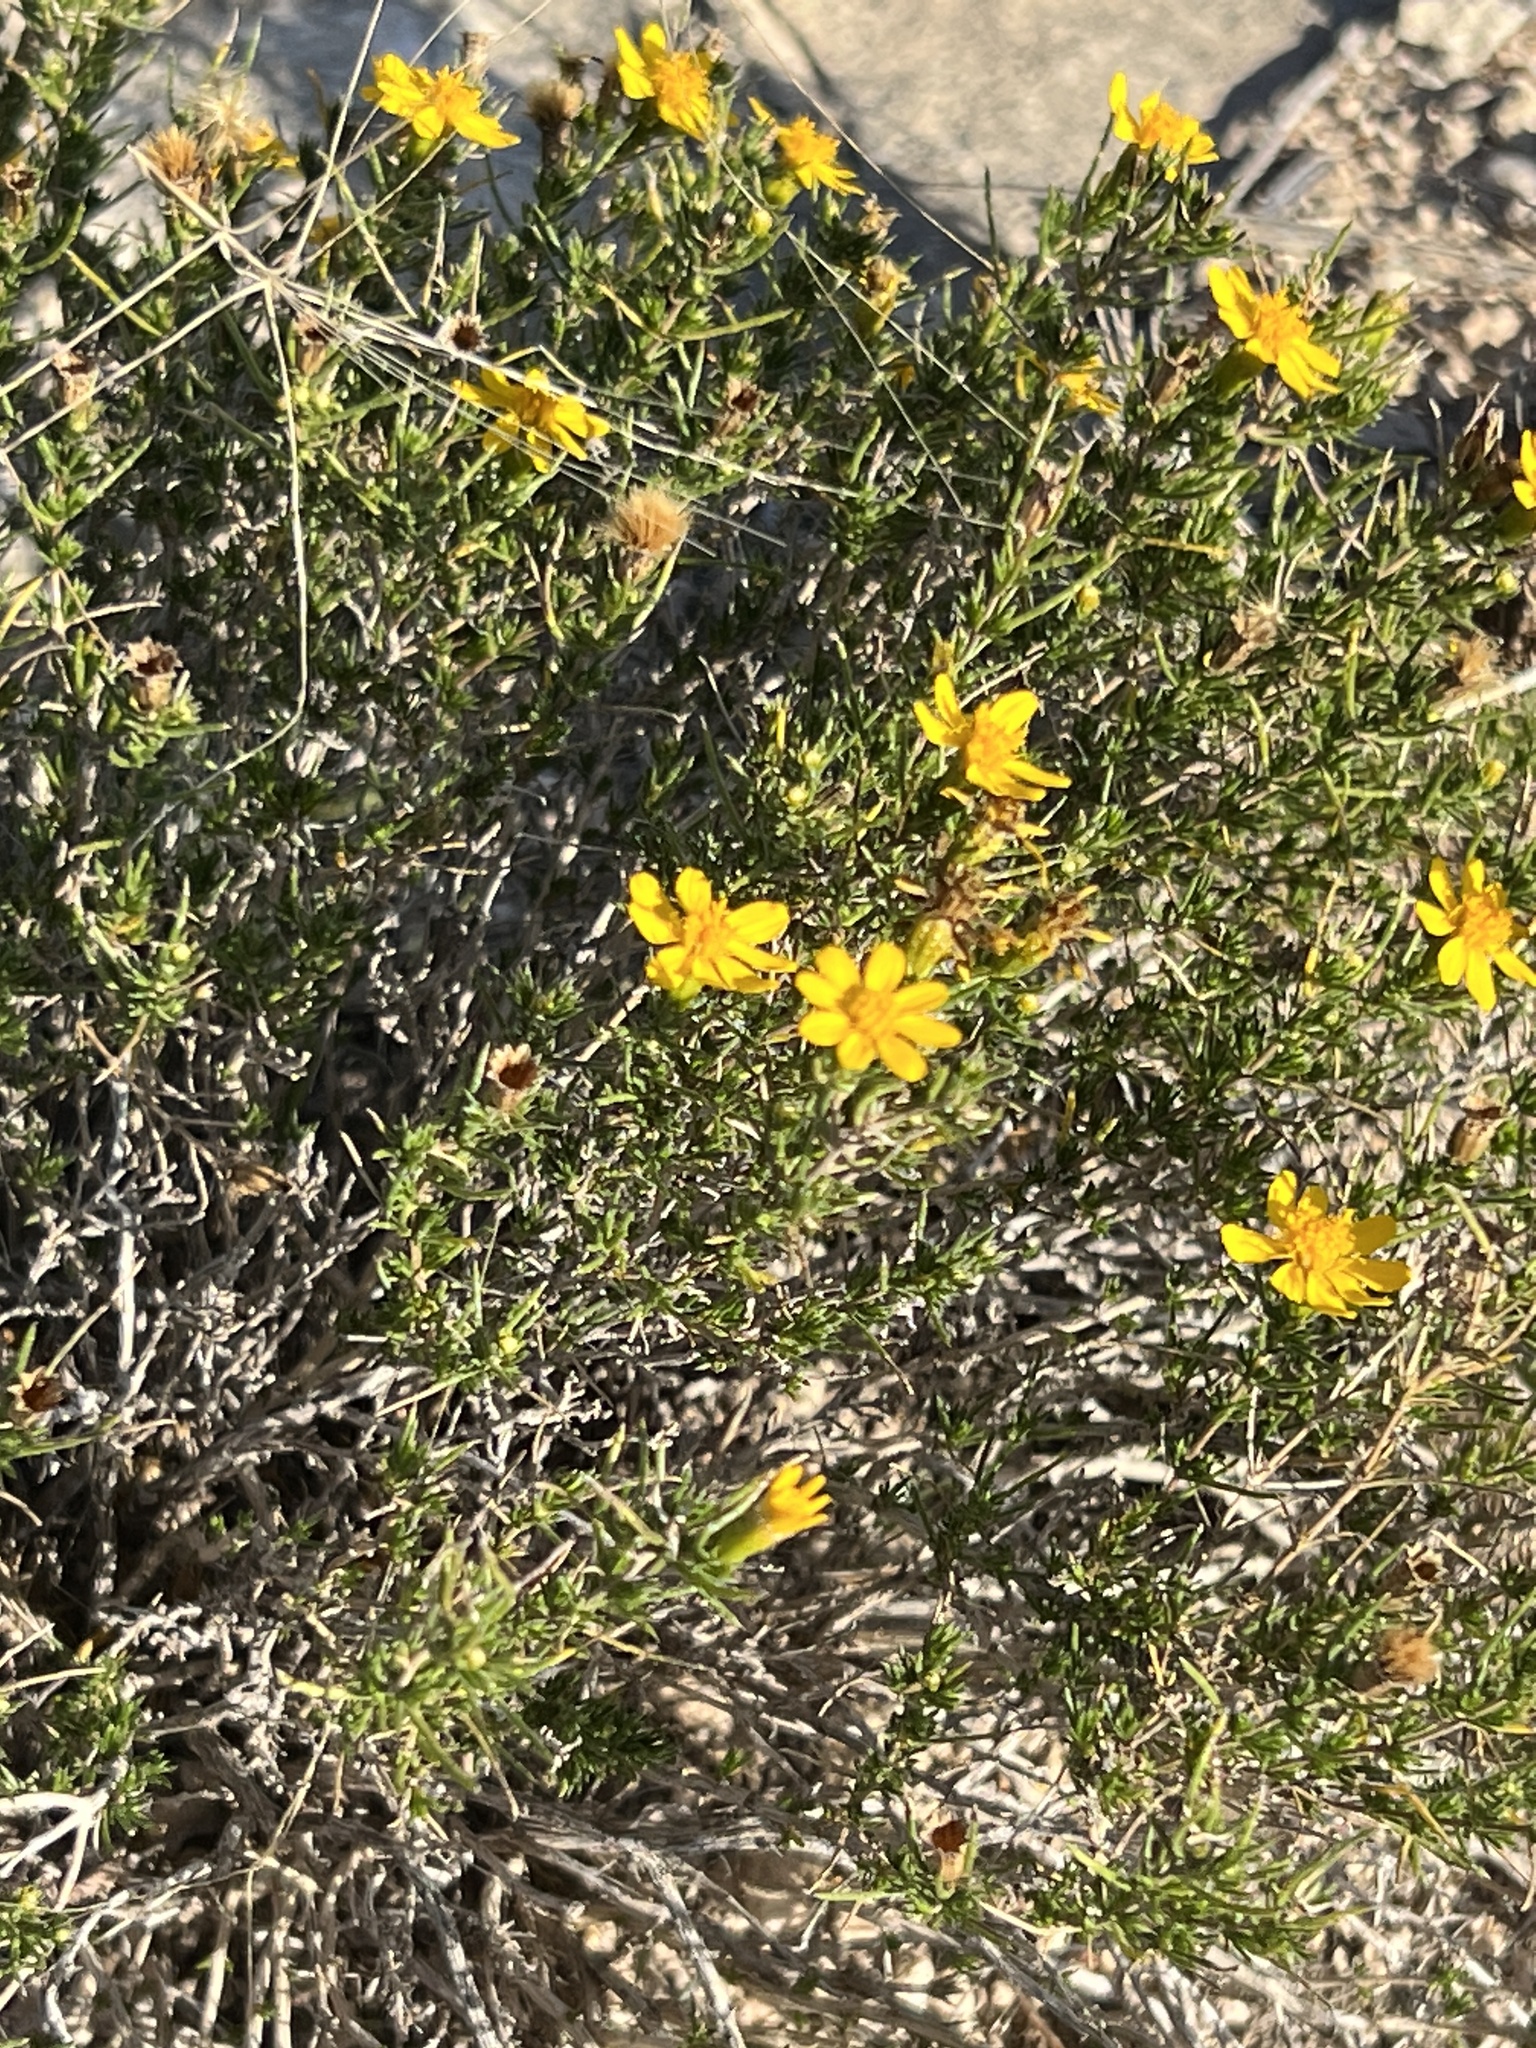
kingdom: Plantae
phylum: Tracheophyta
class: Magnoliopsida
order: Asterales
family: Asteraceae
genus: Thymophylla
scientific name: Thymophylla acerosa
